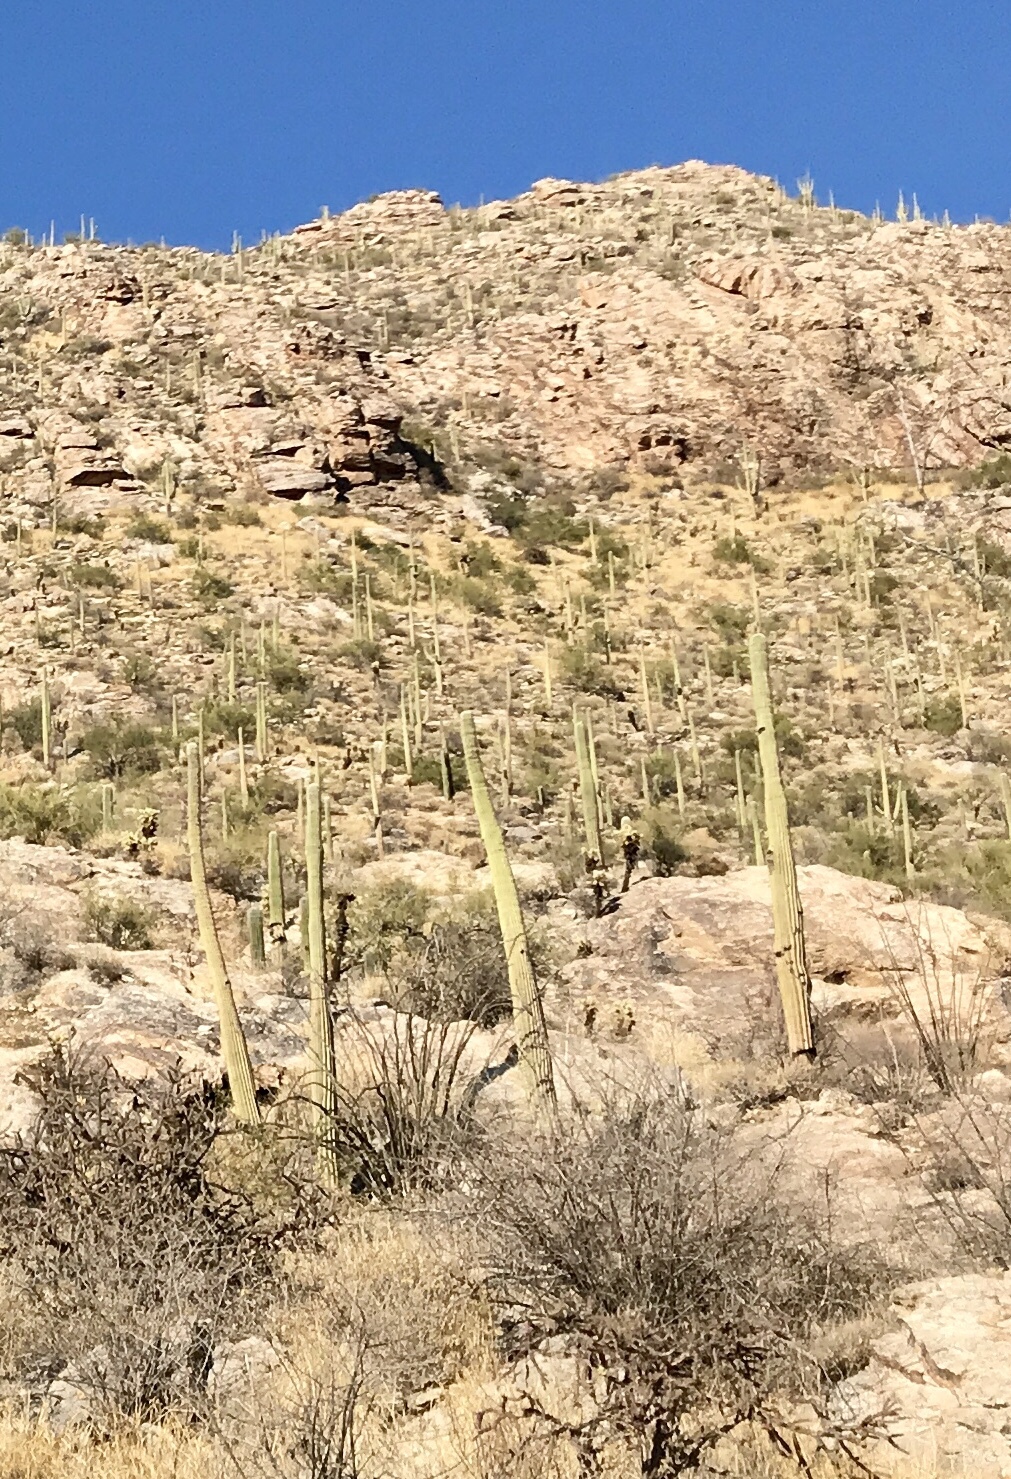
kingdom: Plantae
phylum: Tracheophyta
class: Magnoliopsida
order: Caryophyllales
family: Cactaceae
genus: Carnegiea
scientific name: Carnegiea gigantea
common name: Saguaro
